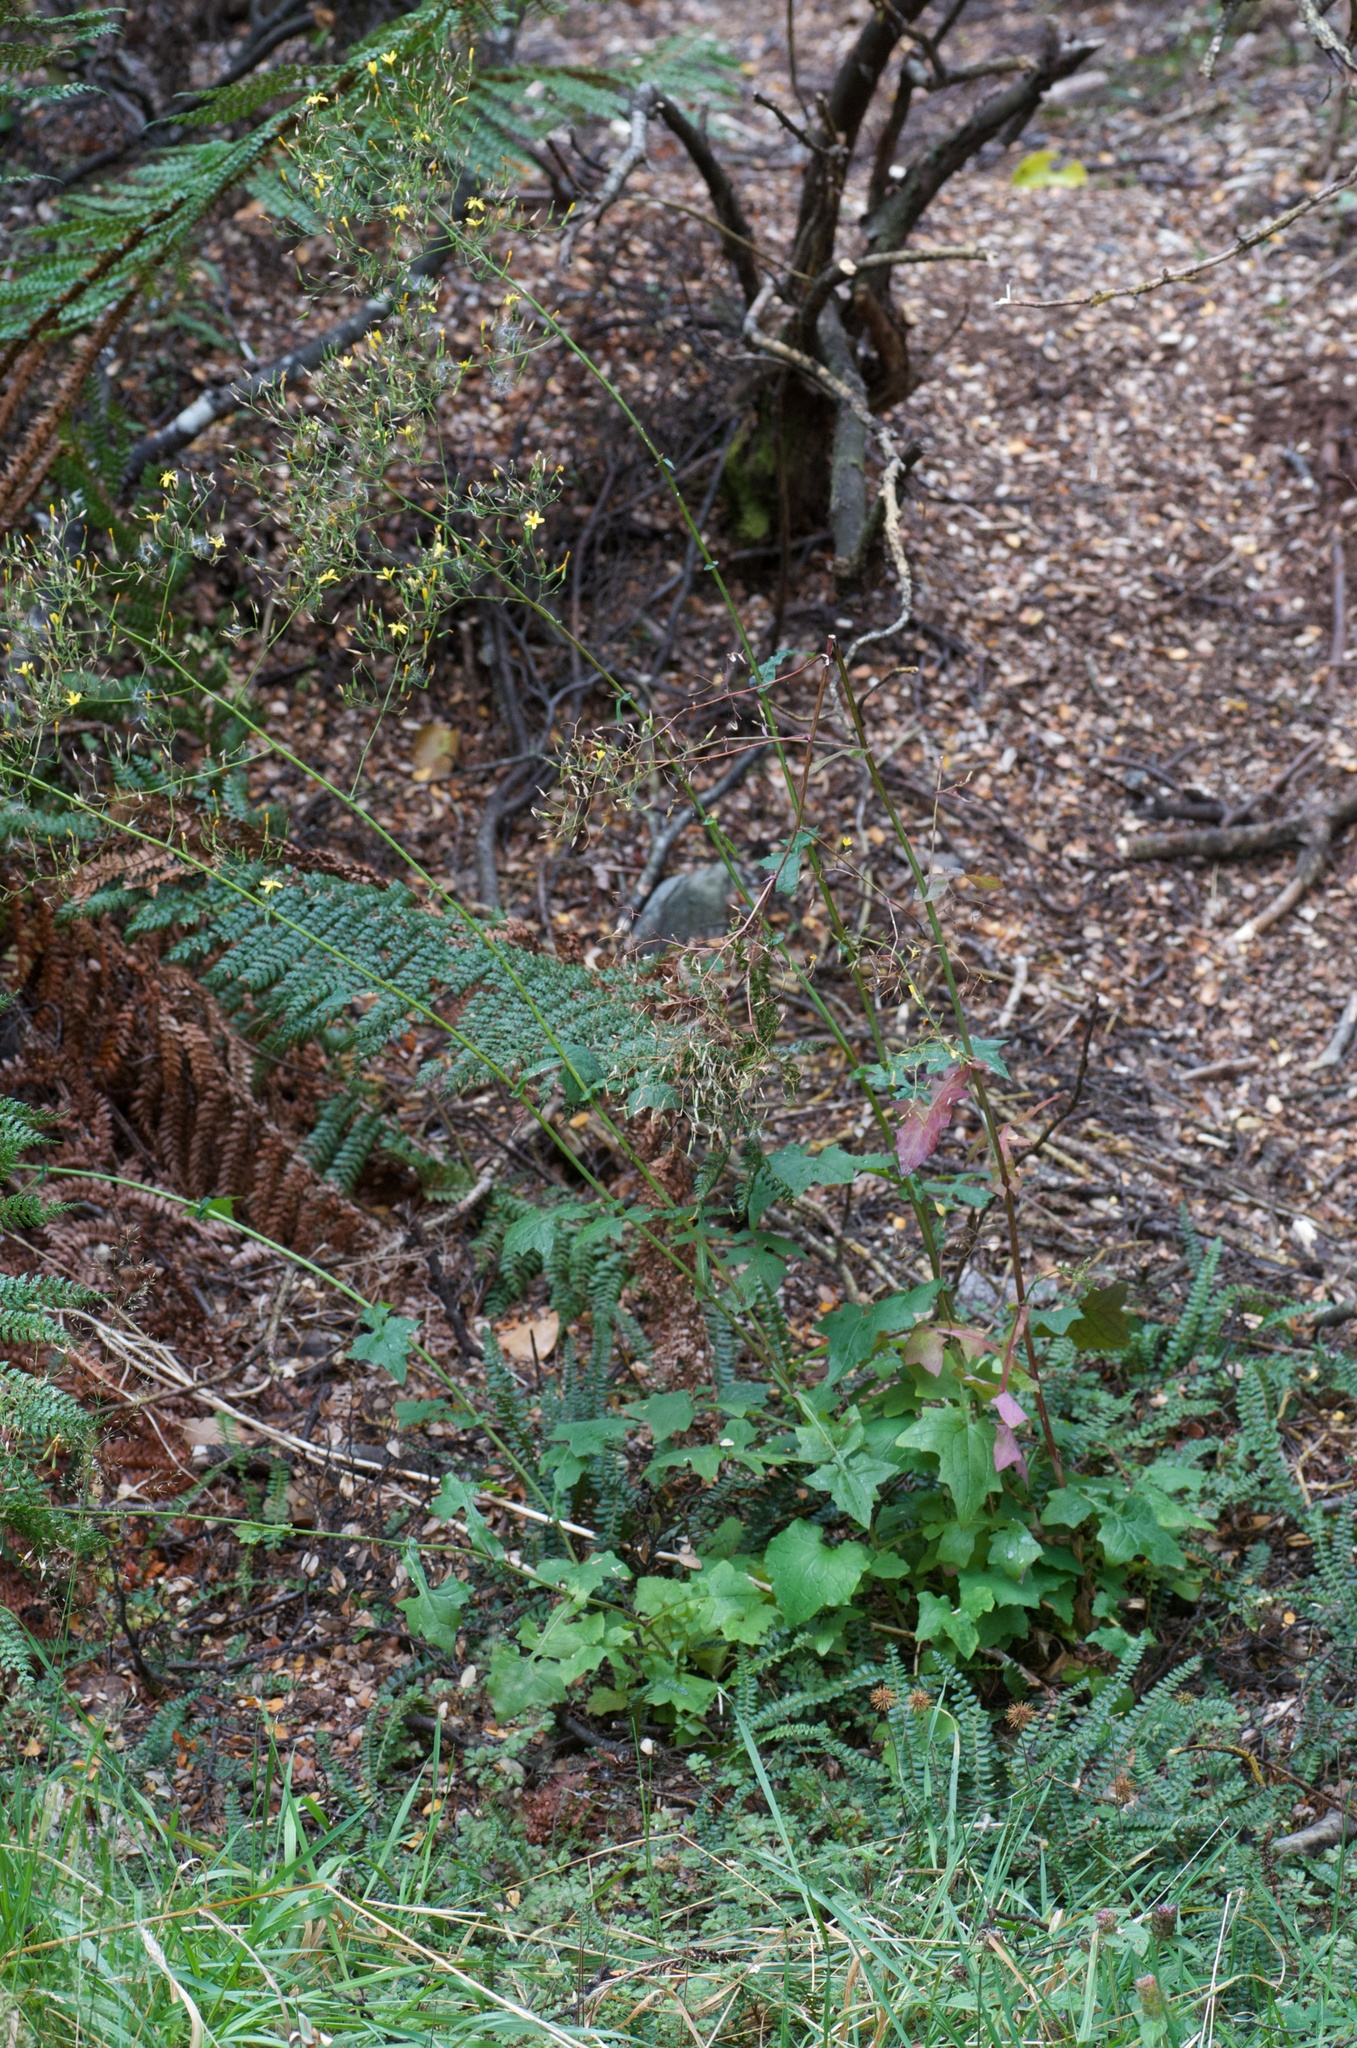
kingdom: Plantae
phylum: Tracheophyta
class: Magnoliopsida
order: Asterales
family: Asteraceae
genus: Mycelis
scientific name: Mycelis muralis
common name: Wall lettuce
